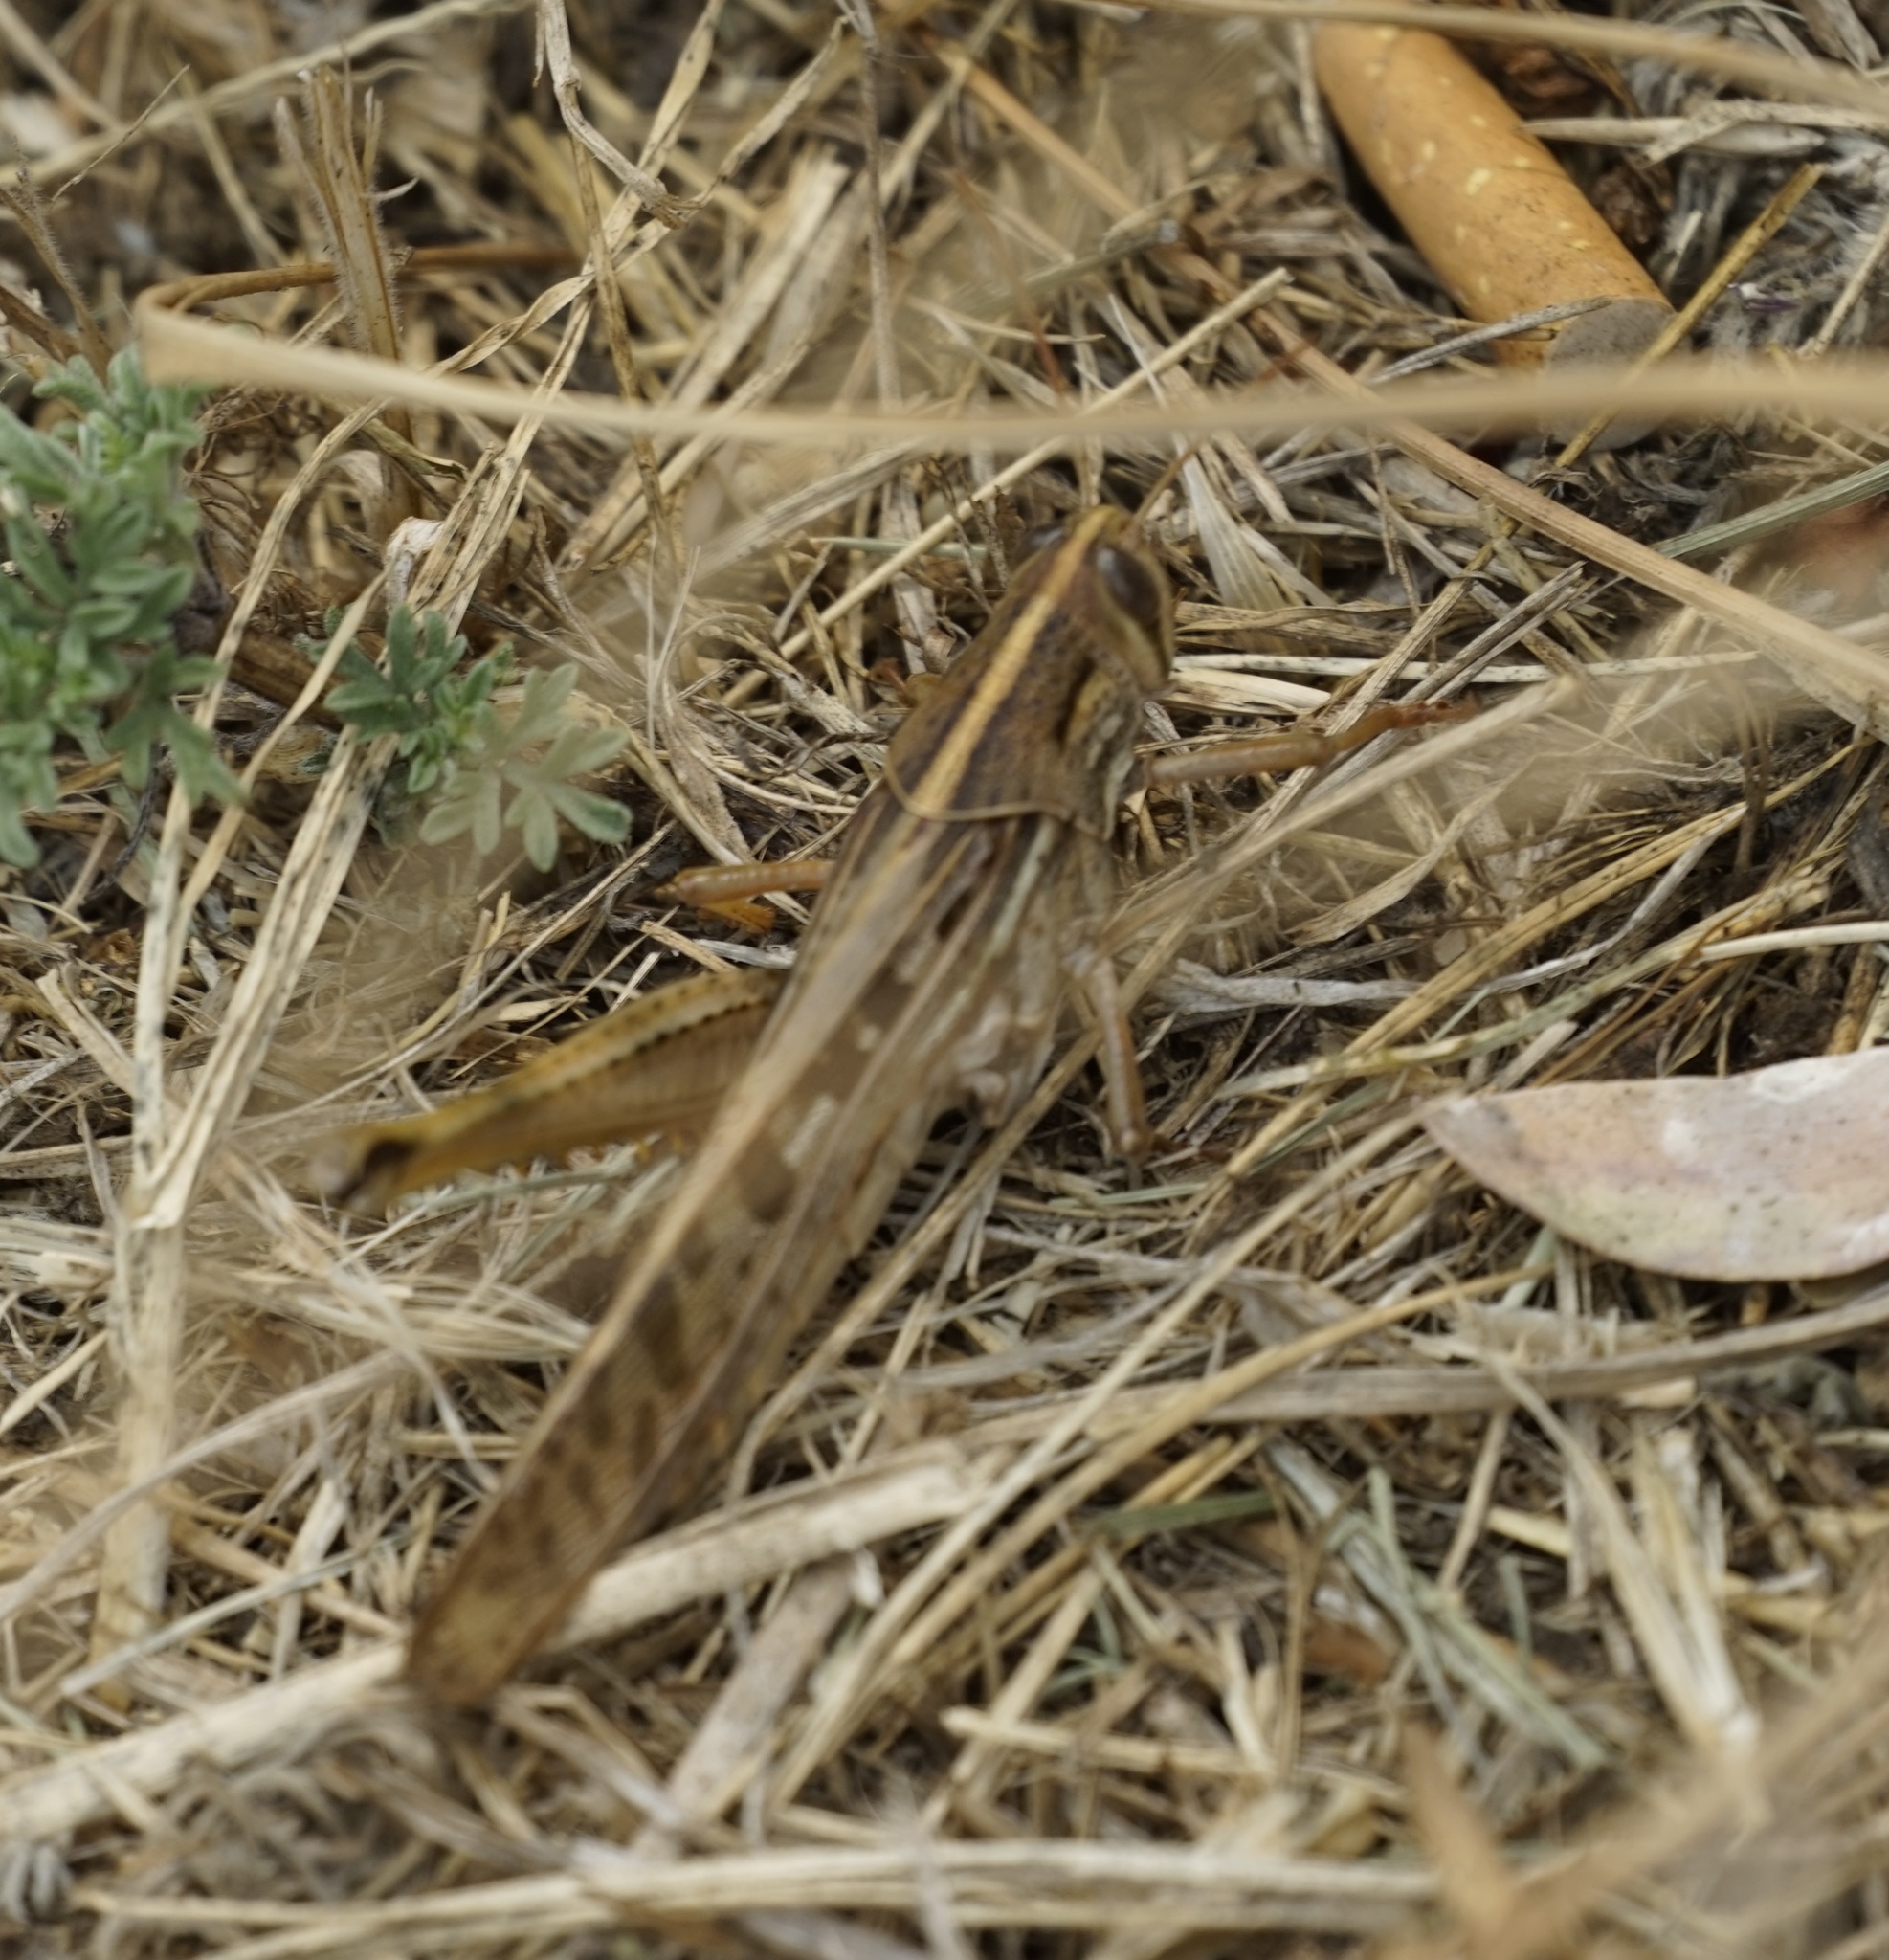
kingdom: Animalia
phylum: Arthropoda
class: Insecta
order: Orthoptera
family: Acrididae
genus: Austracris
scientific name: Austracris proxima
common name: Confusing spur-throated locust
